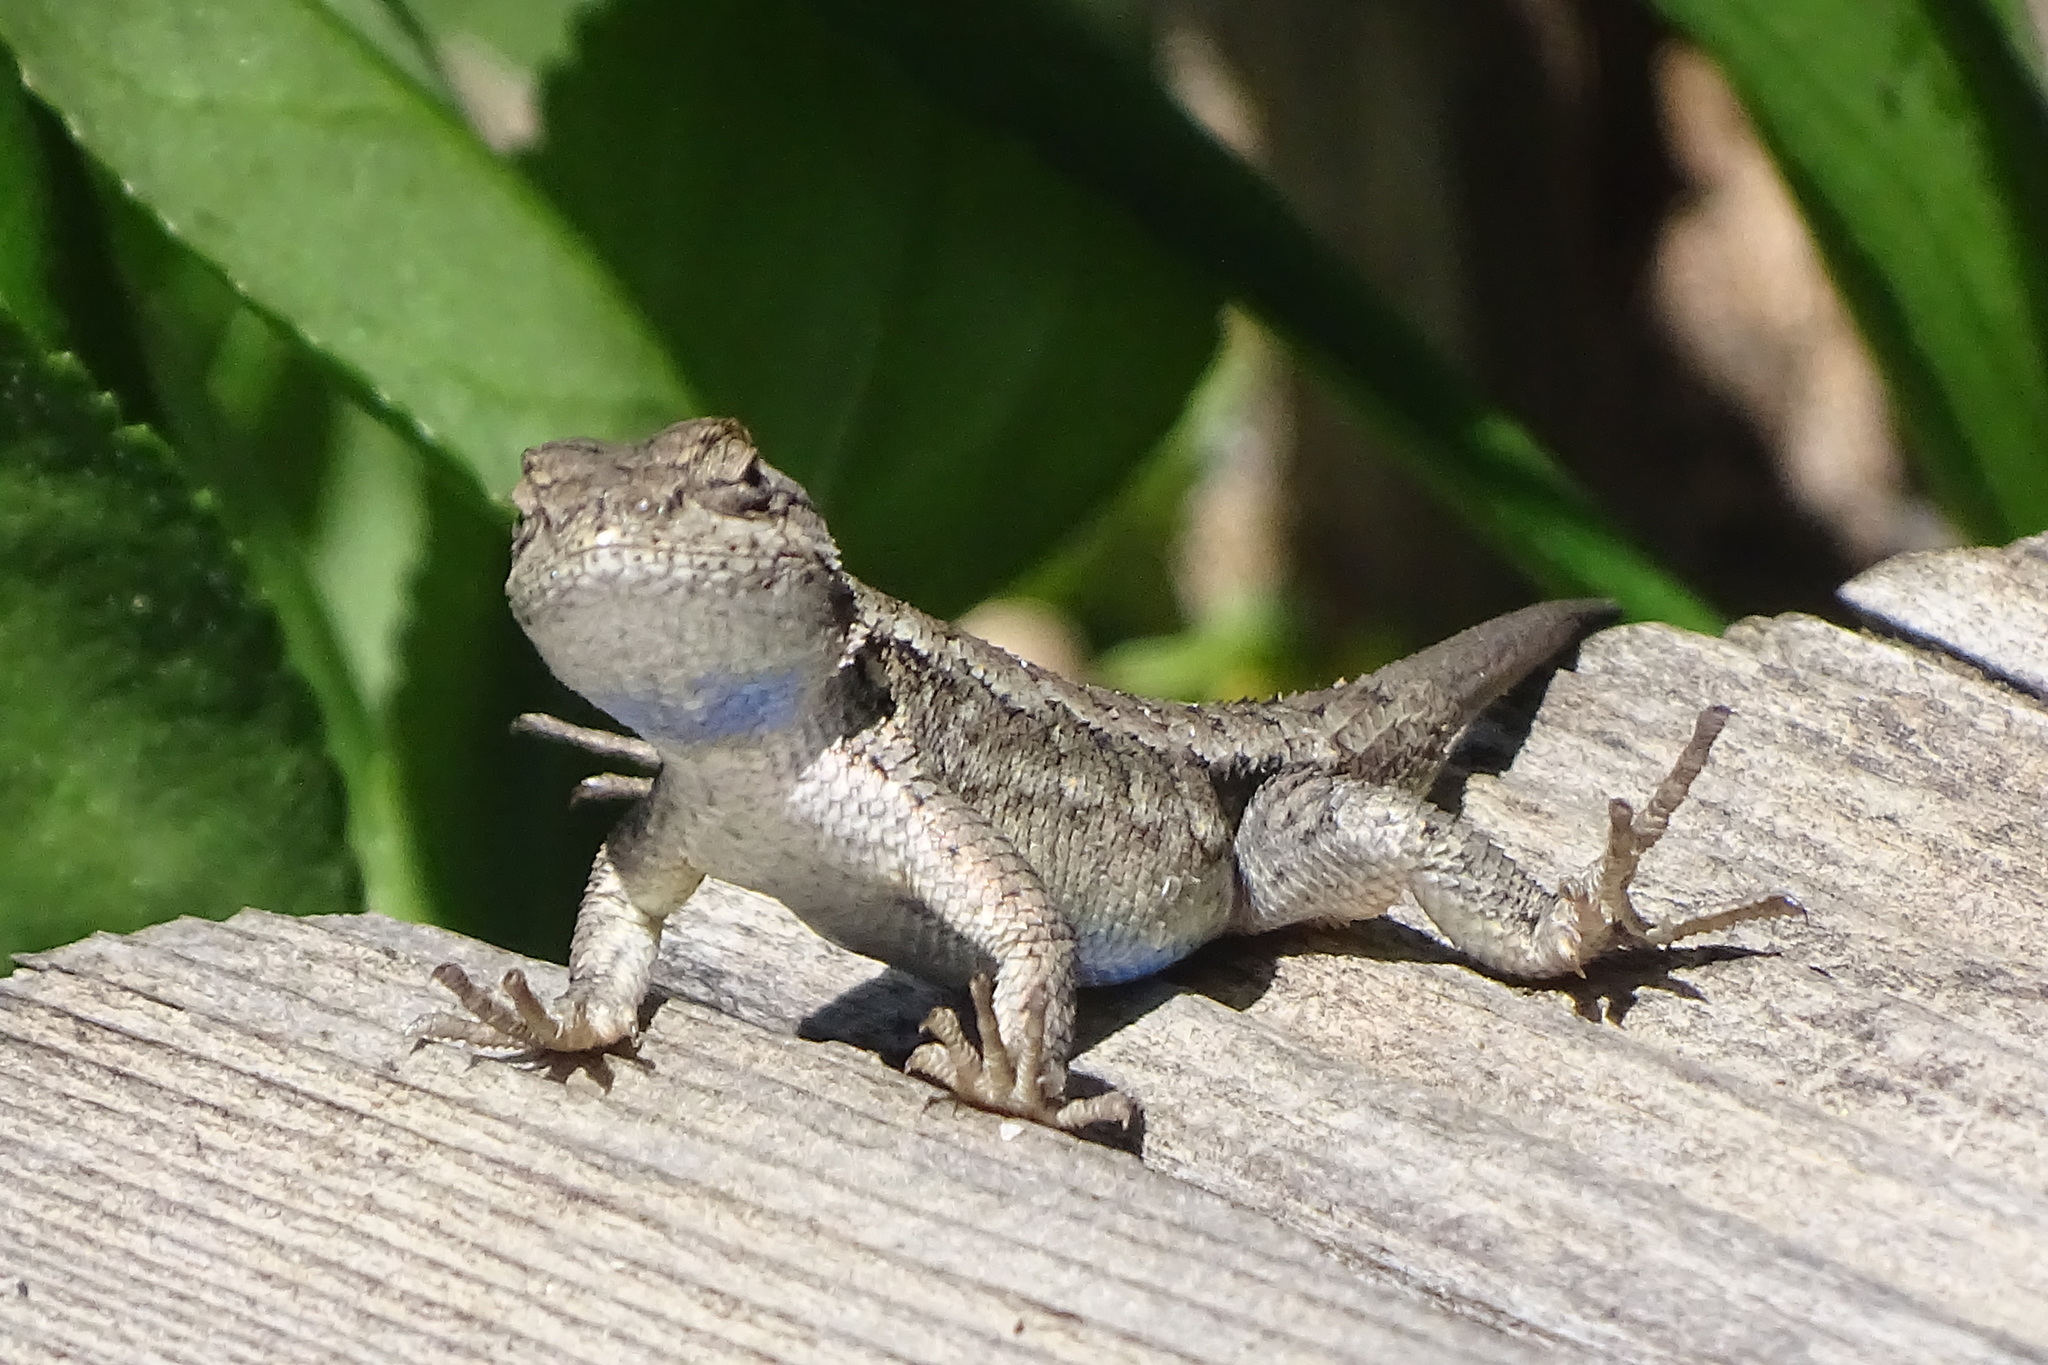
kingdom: Animalia
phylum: Chordata
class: Squamata
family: Phrynosomatidae
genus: Sceloporus
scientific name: Sceloporus occidentalis
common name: Western fence lizard
